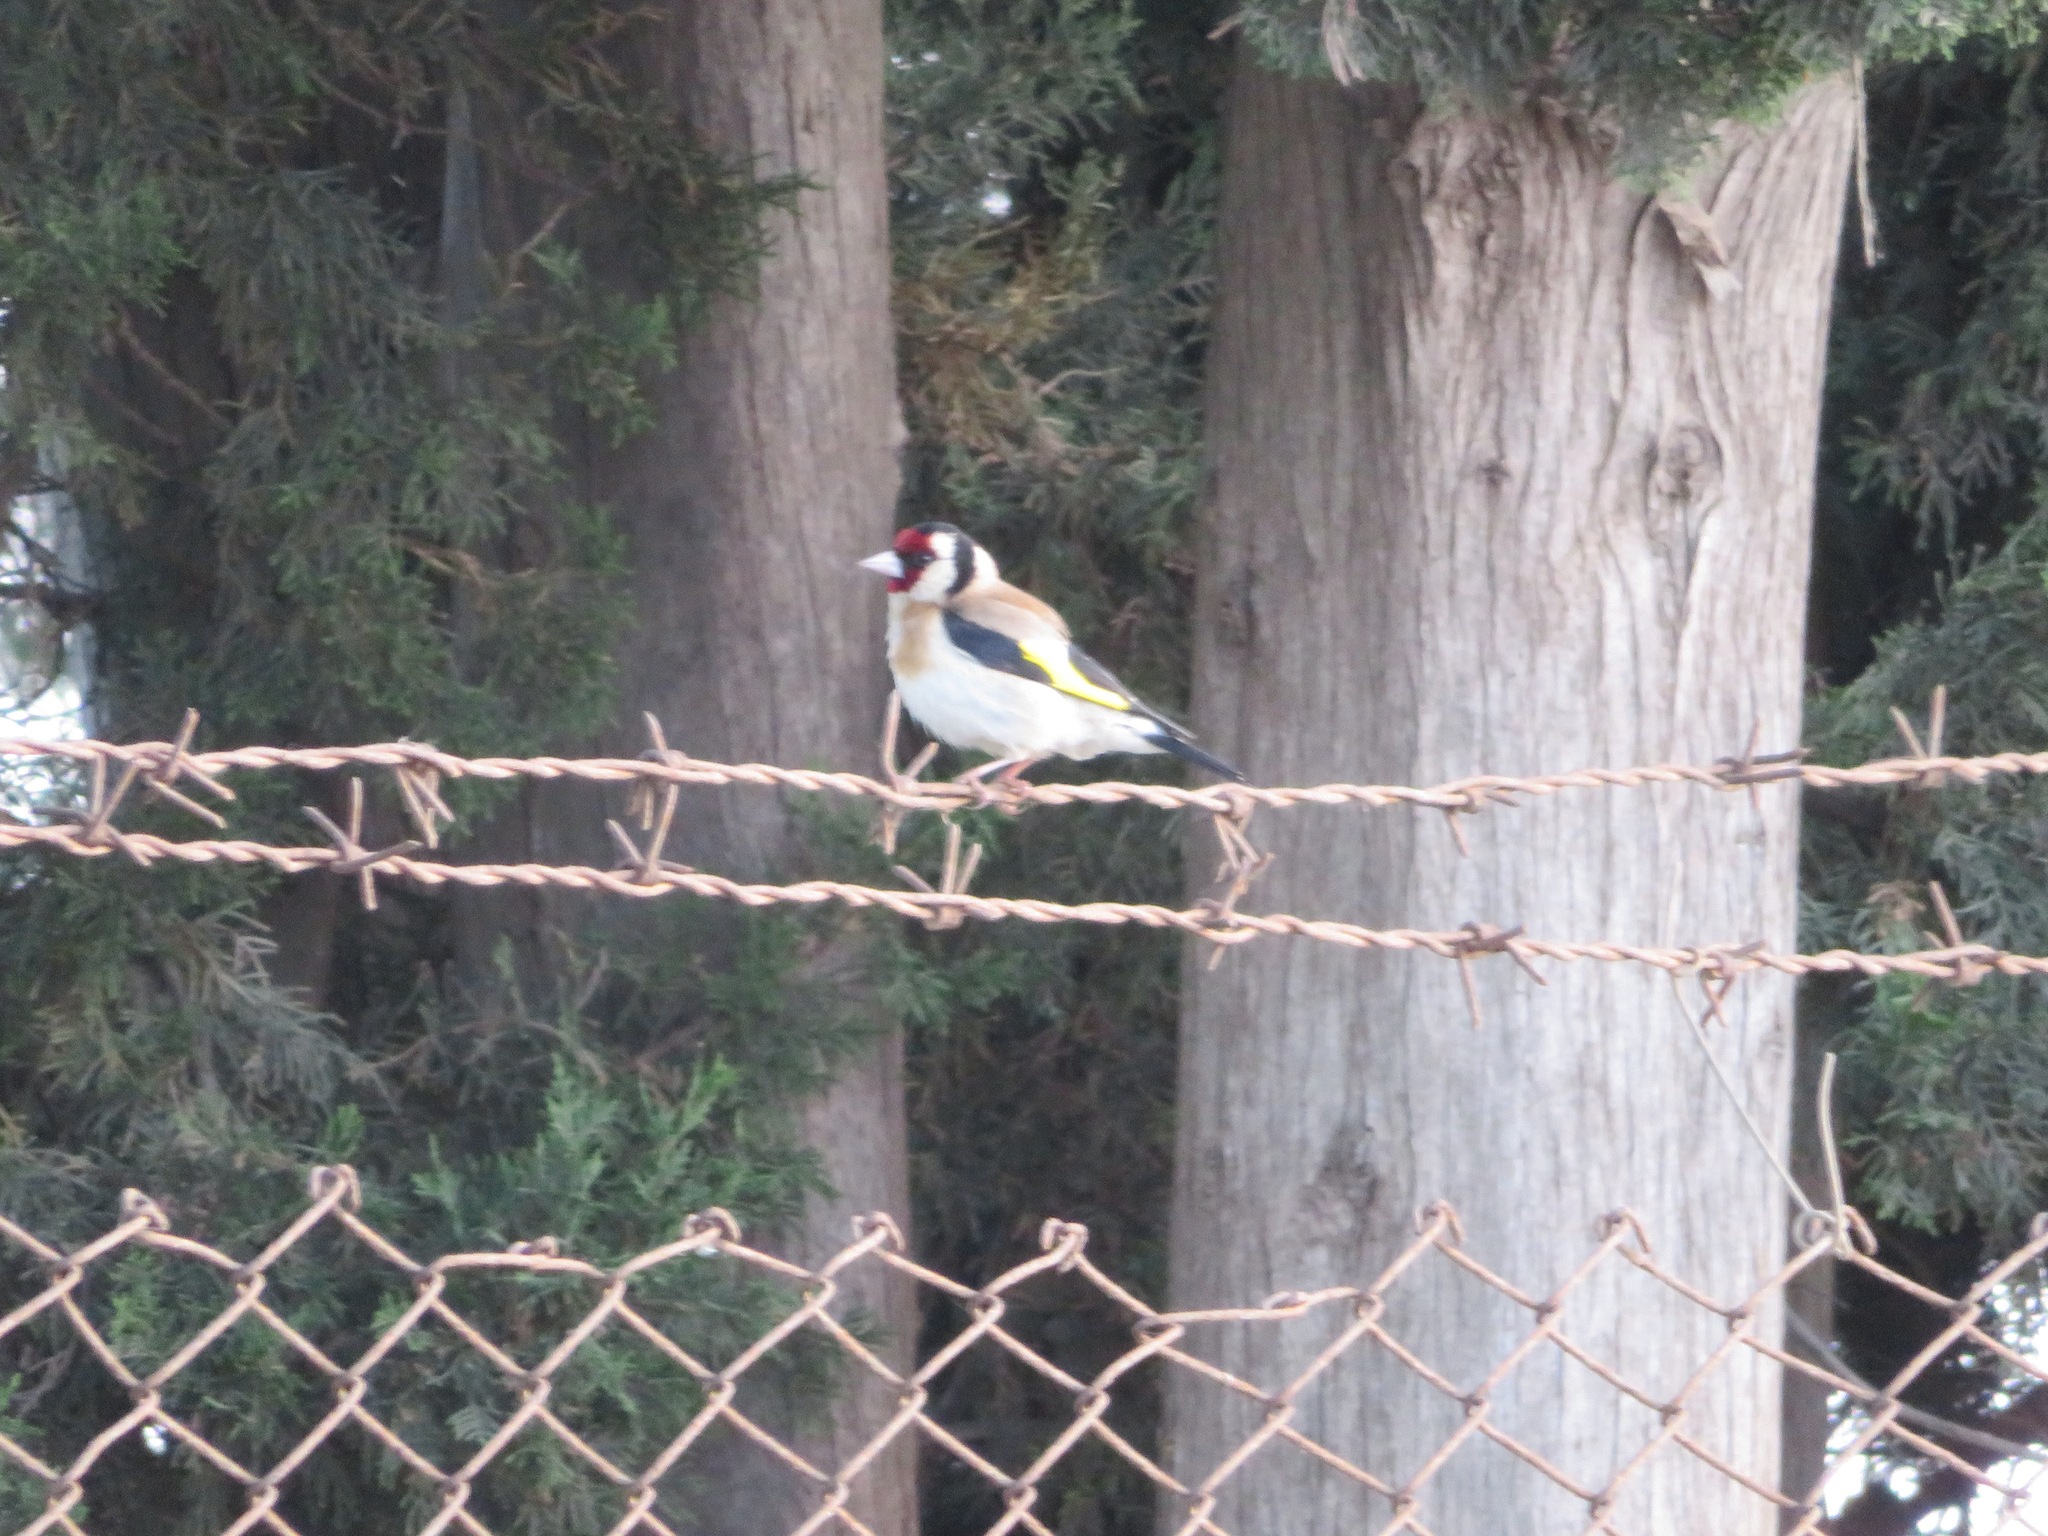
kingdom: Animalia
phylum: Chordata
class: Aves
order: Passeriformes
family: Fringillidae
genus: Carduelis
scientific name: Carduelis carduelis
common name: European goldfinch
